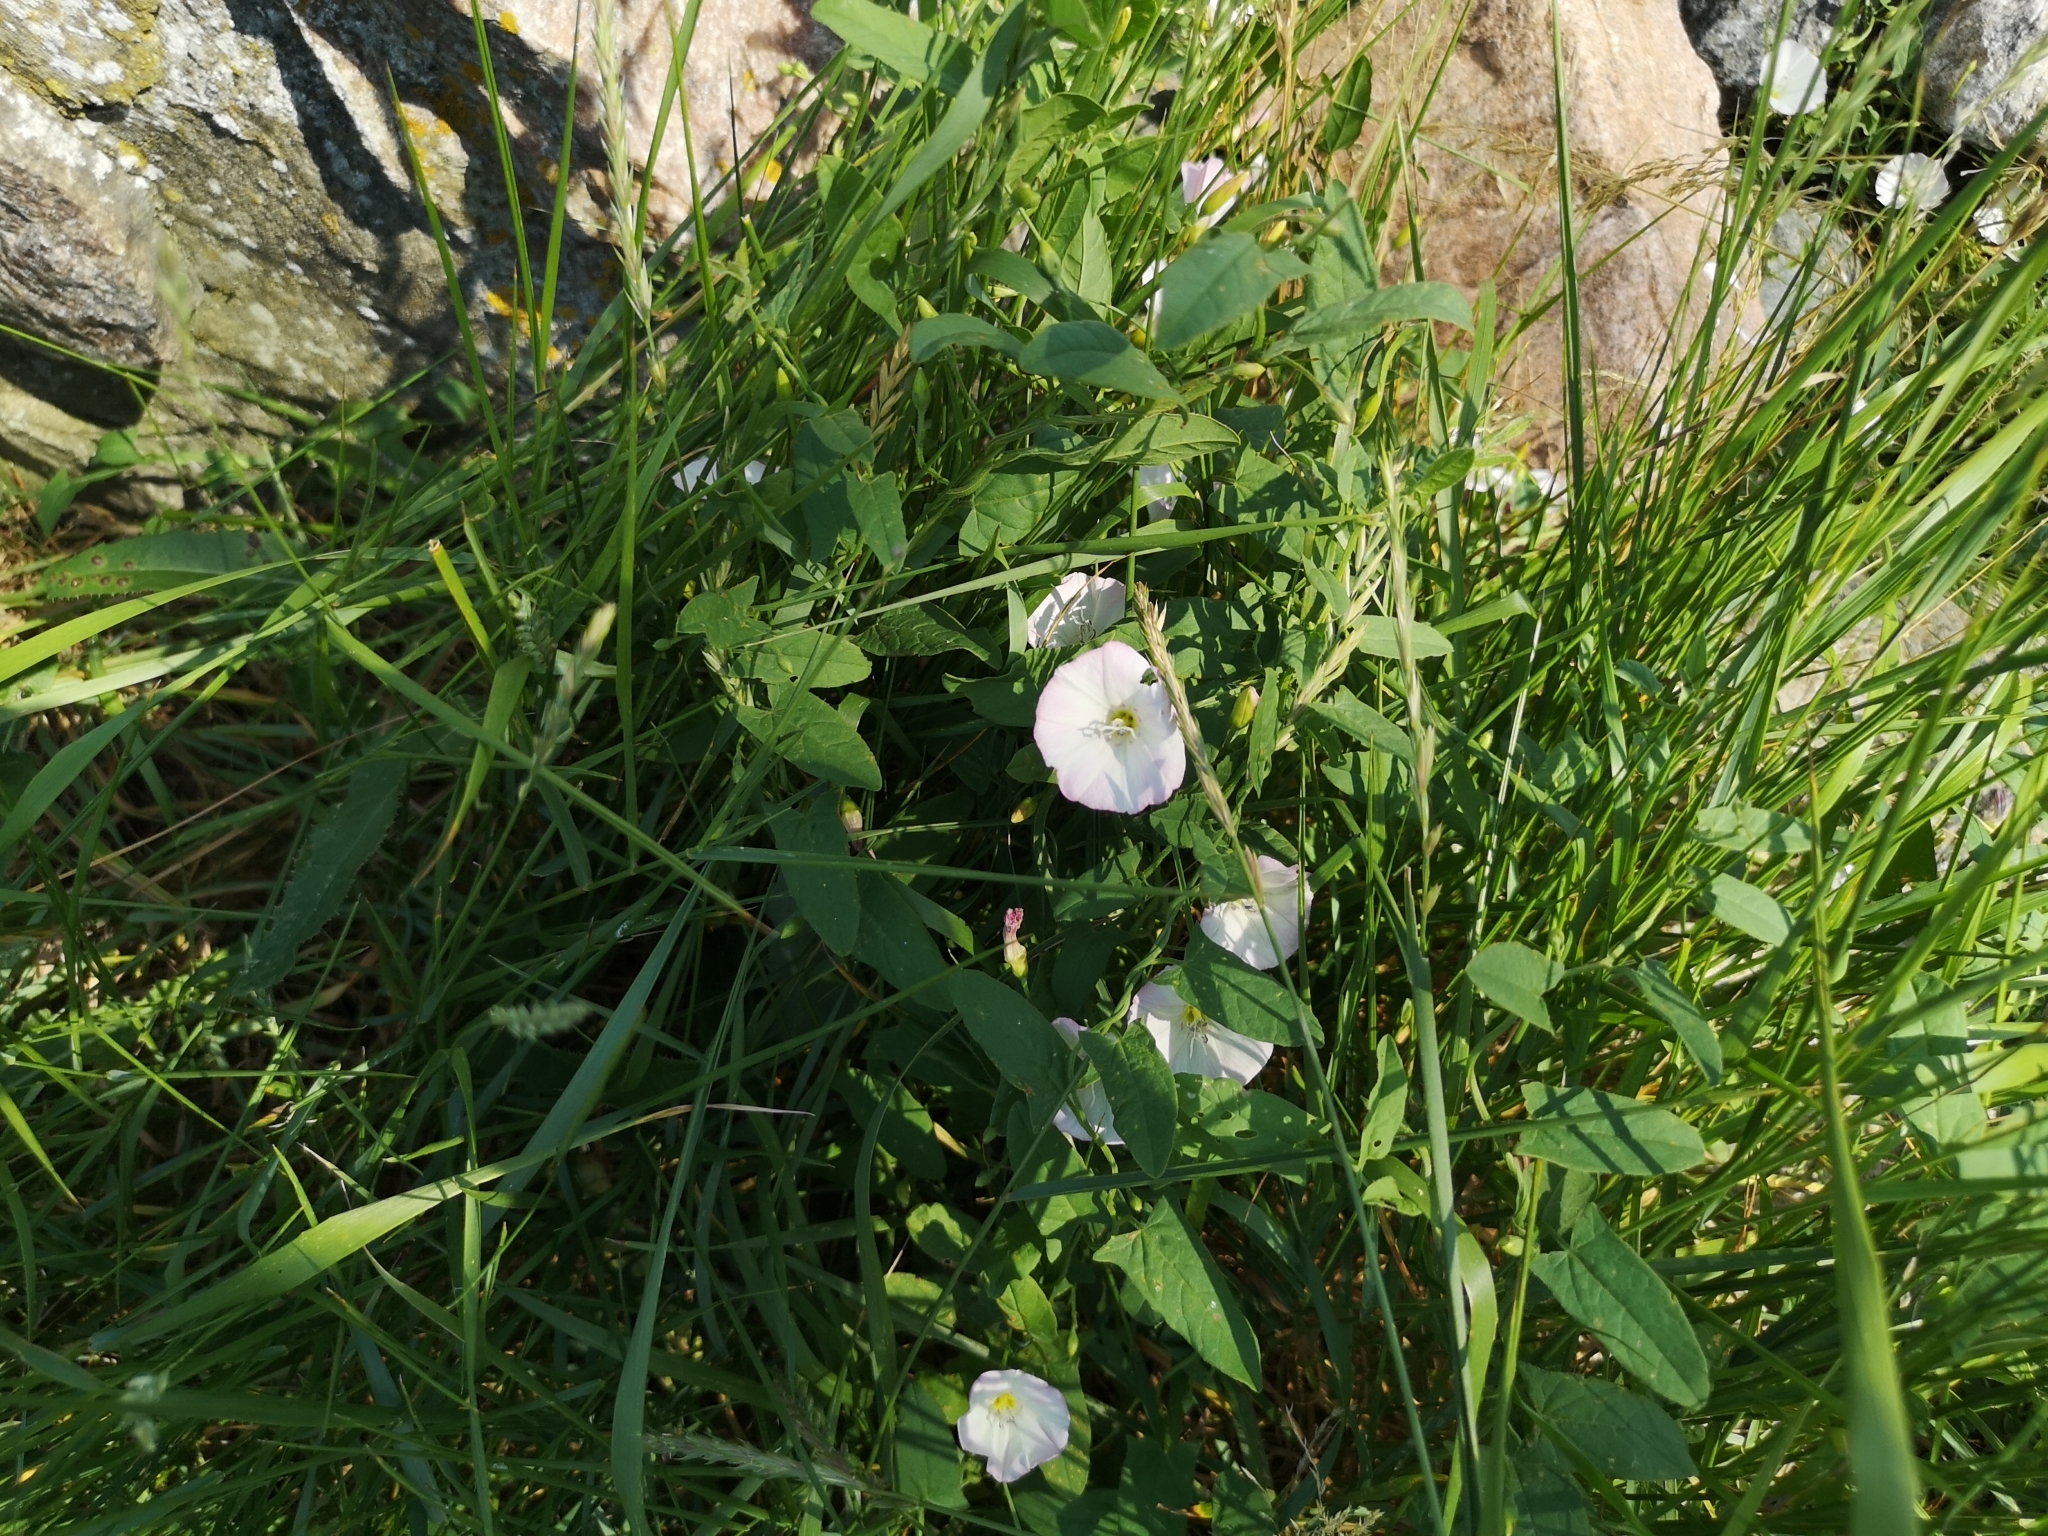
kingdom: Plantae
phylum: Tracheophyta
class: Magnoliopsida
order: Solanales
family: Convolvulaceae
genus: Convolvulus
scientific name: Convolvulus arvensis
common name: Field bindweed
